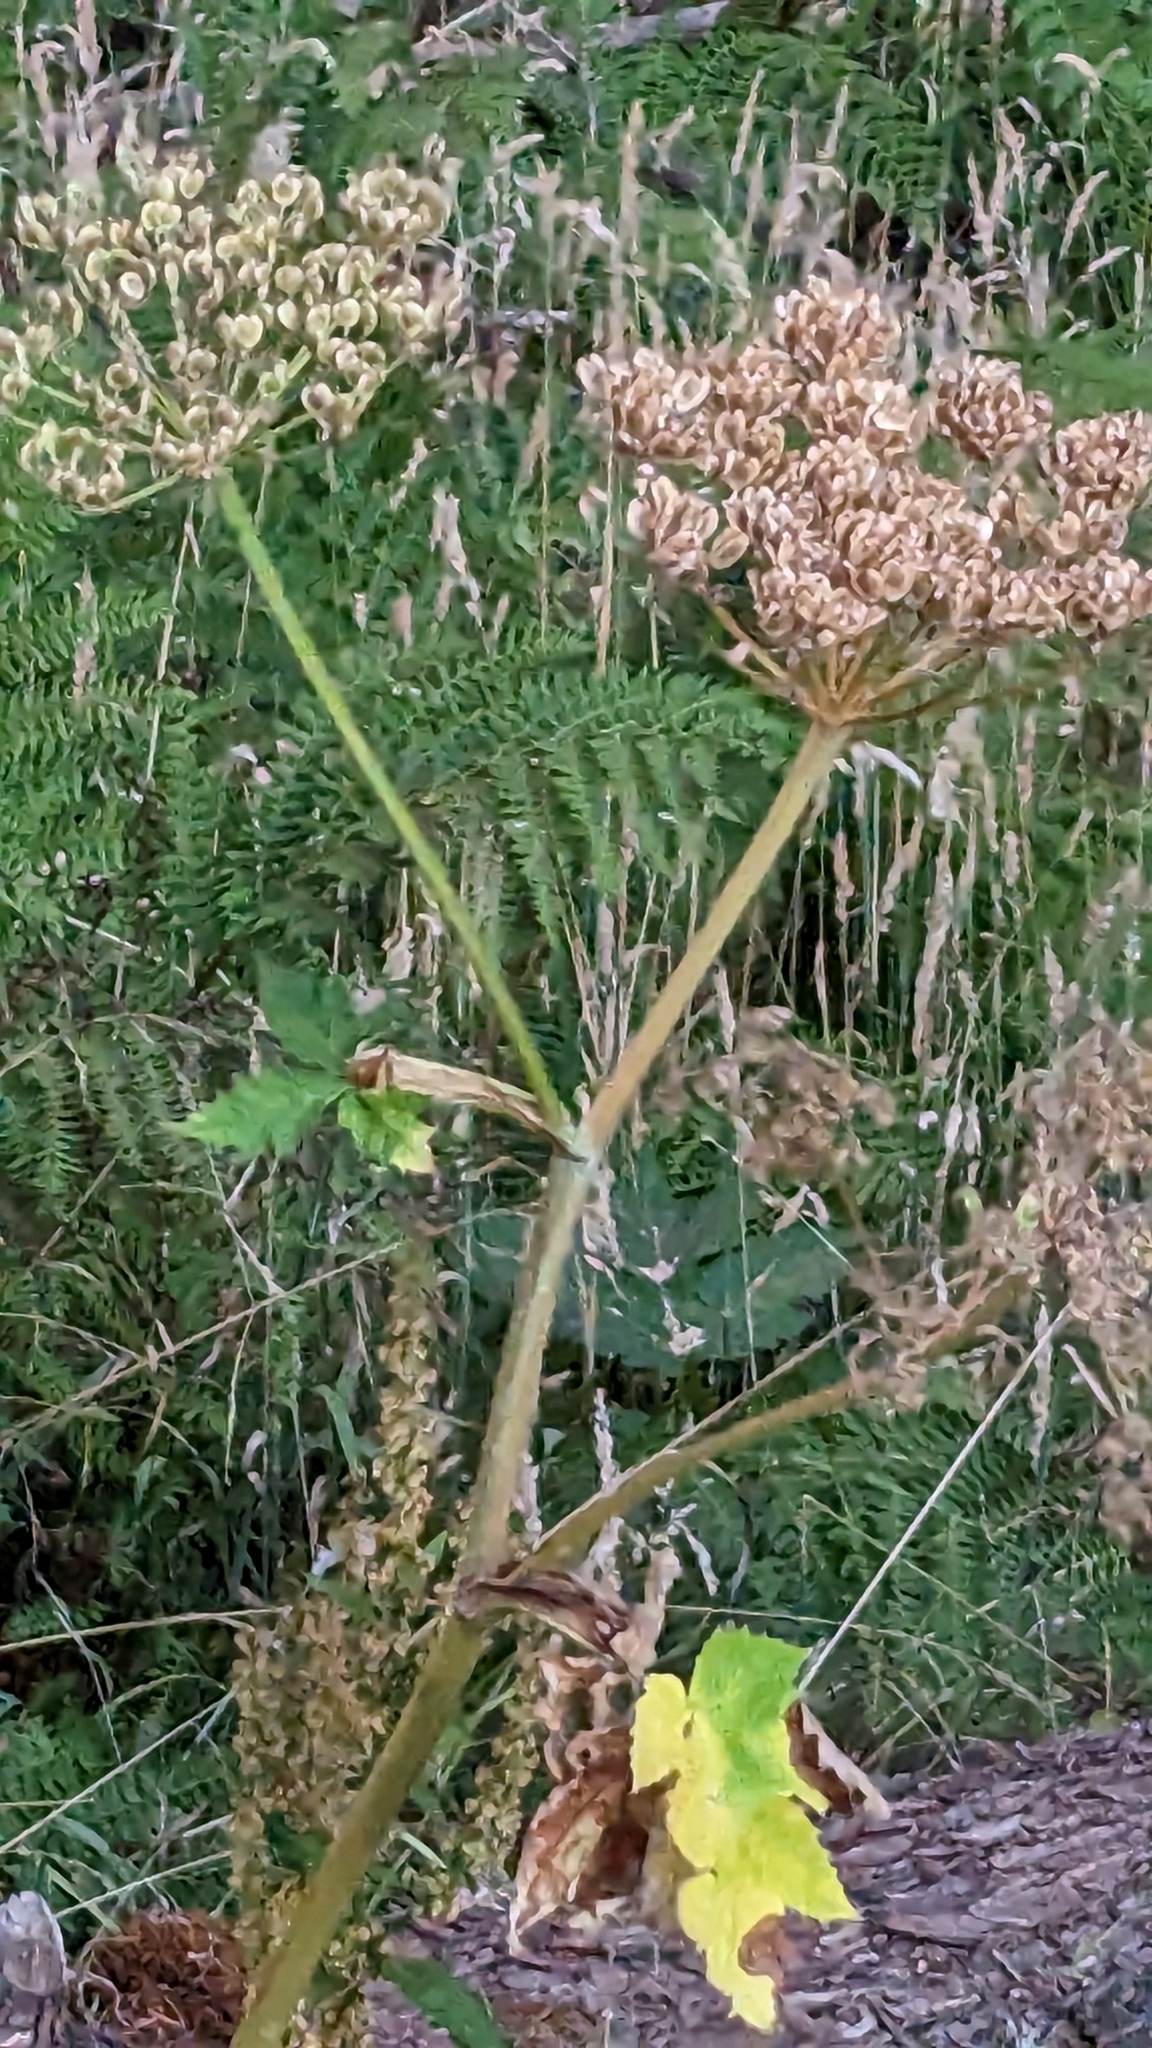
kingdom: Plantae
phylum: Tracheophyta
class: Magnoliopsida
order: Apiales
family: Apiaceae
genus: Heracleum
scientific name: Heracleum maximum
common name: American cow parsnip
